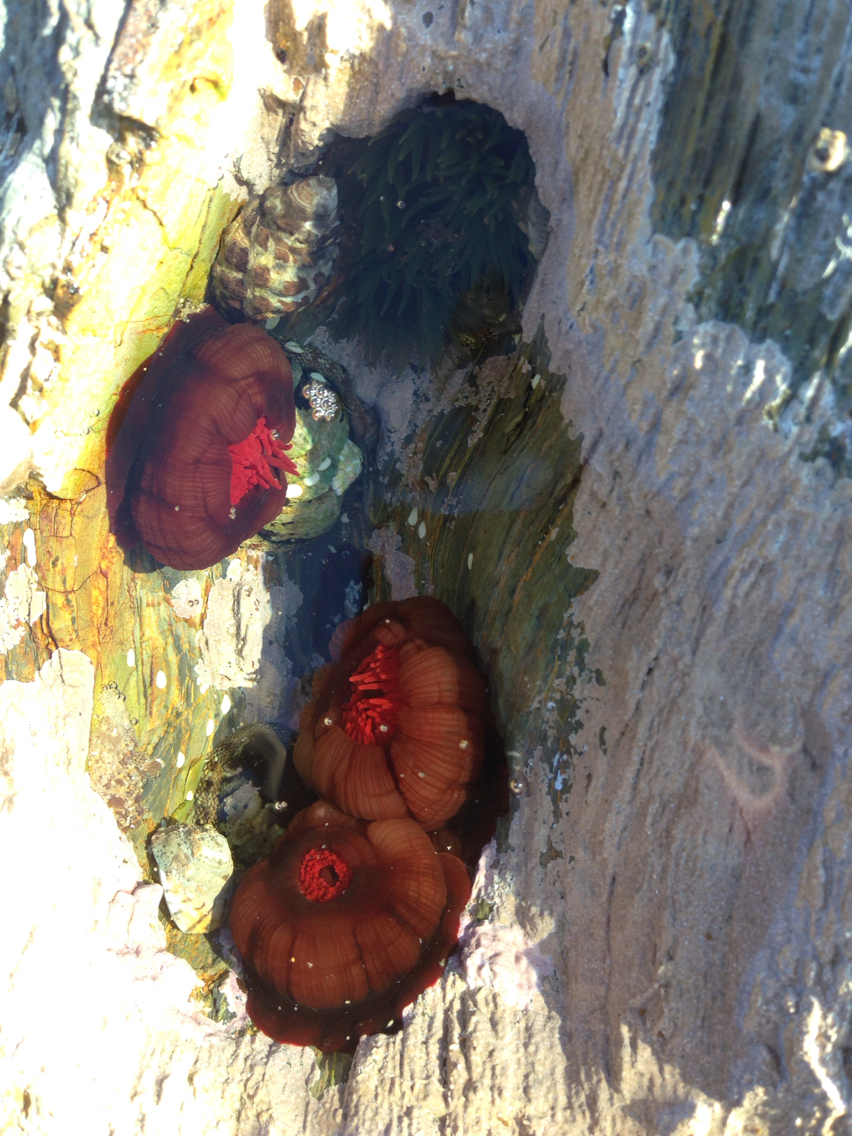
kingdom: Animalia
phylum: Cnidaria
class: Anthozoa
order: Actiniaria
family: Actiniidae
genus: Actinia
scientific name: Actinia tenebrosa
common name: Waratah anemone
